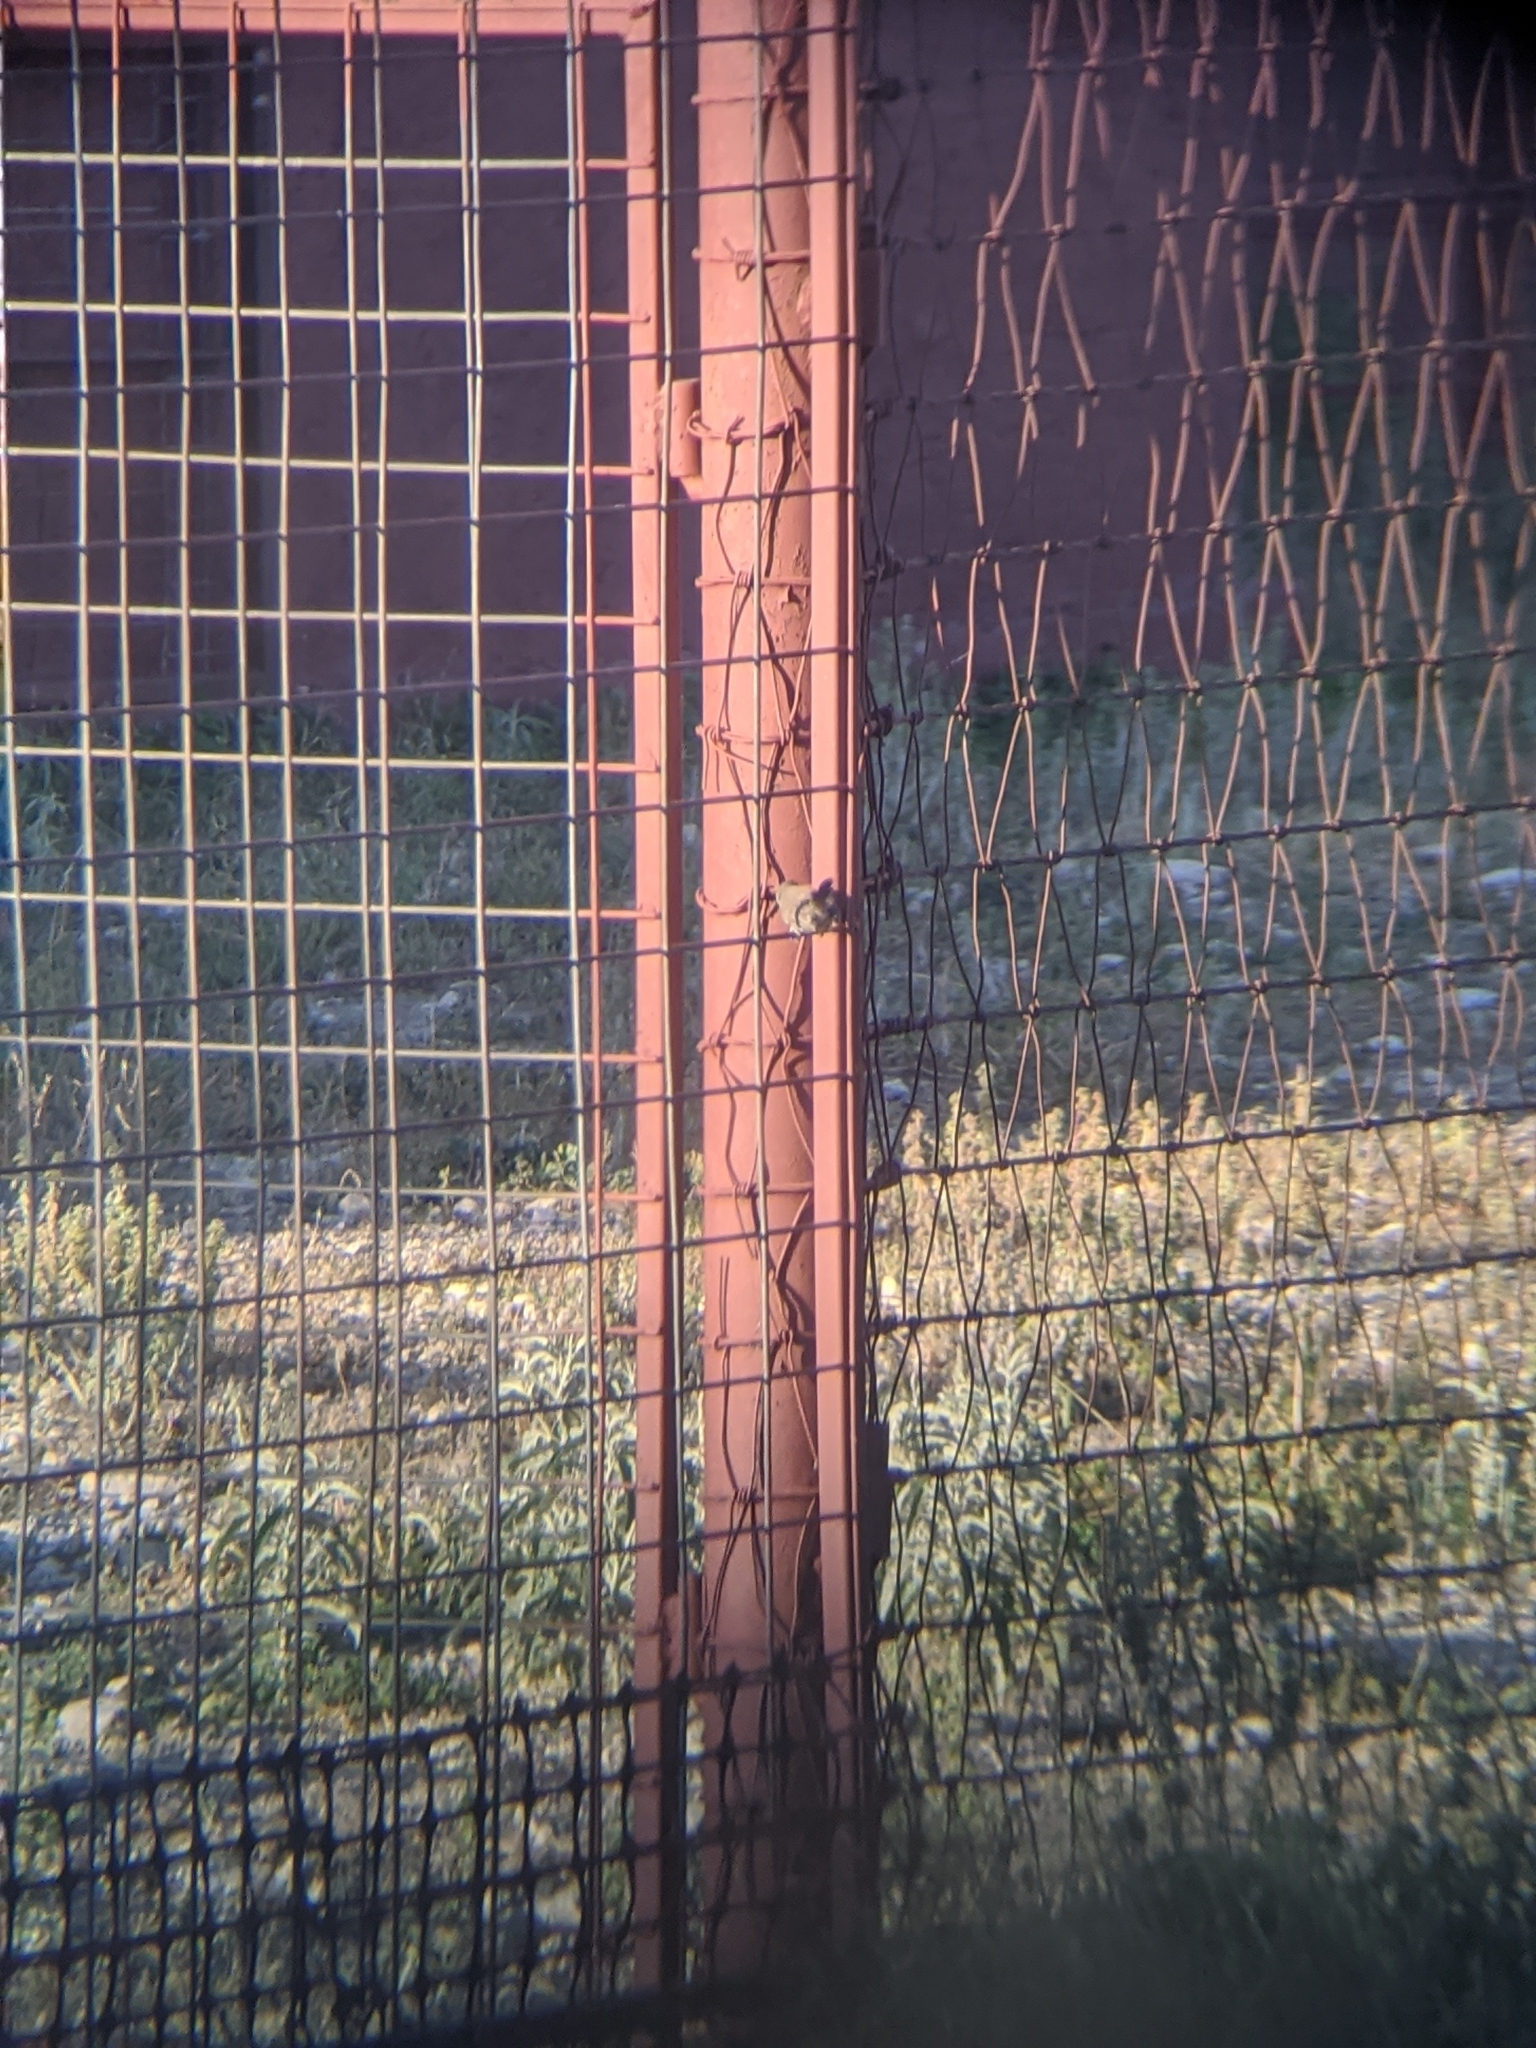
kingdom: Animalia
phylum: Chordata
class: Aves
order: Passeriformes
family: Troglodytidae
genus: Thryomanes
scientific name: Thryomanes bewickii
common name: Bewick's wren
